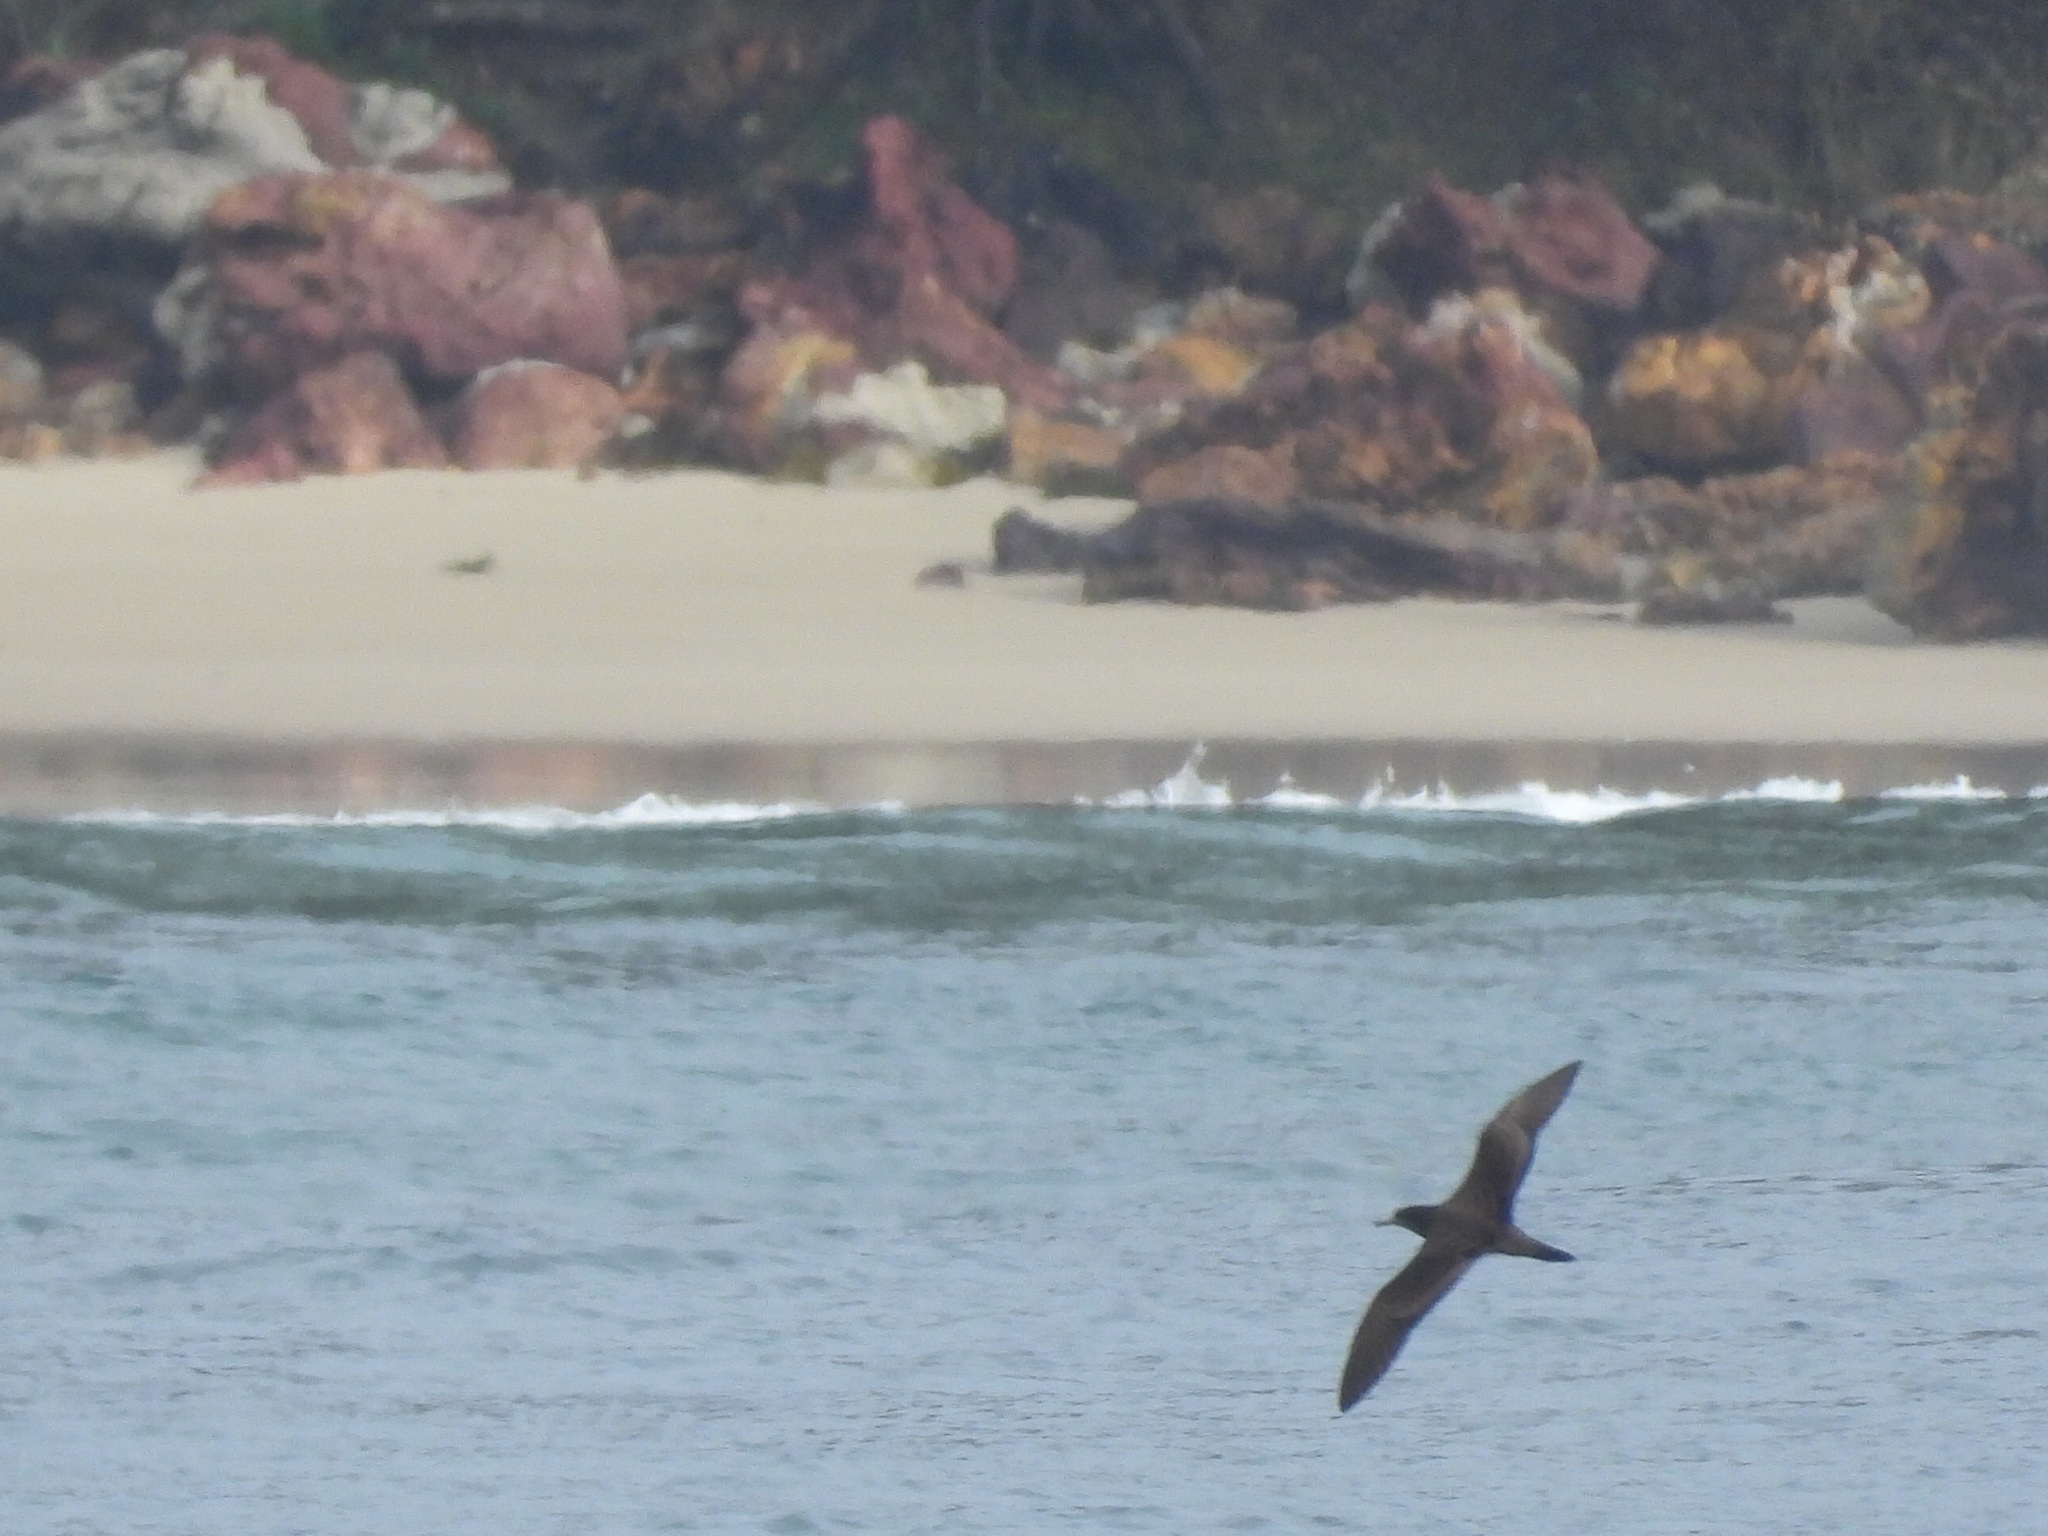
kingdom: Animalia
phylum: Chordata
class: Aves
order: Procellariiformes
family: Procellariidae
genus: Puffinus
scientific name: Puffinus pacificus
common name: Wedge-tailed shearwater
